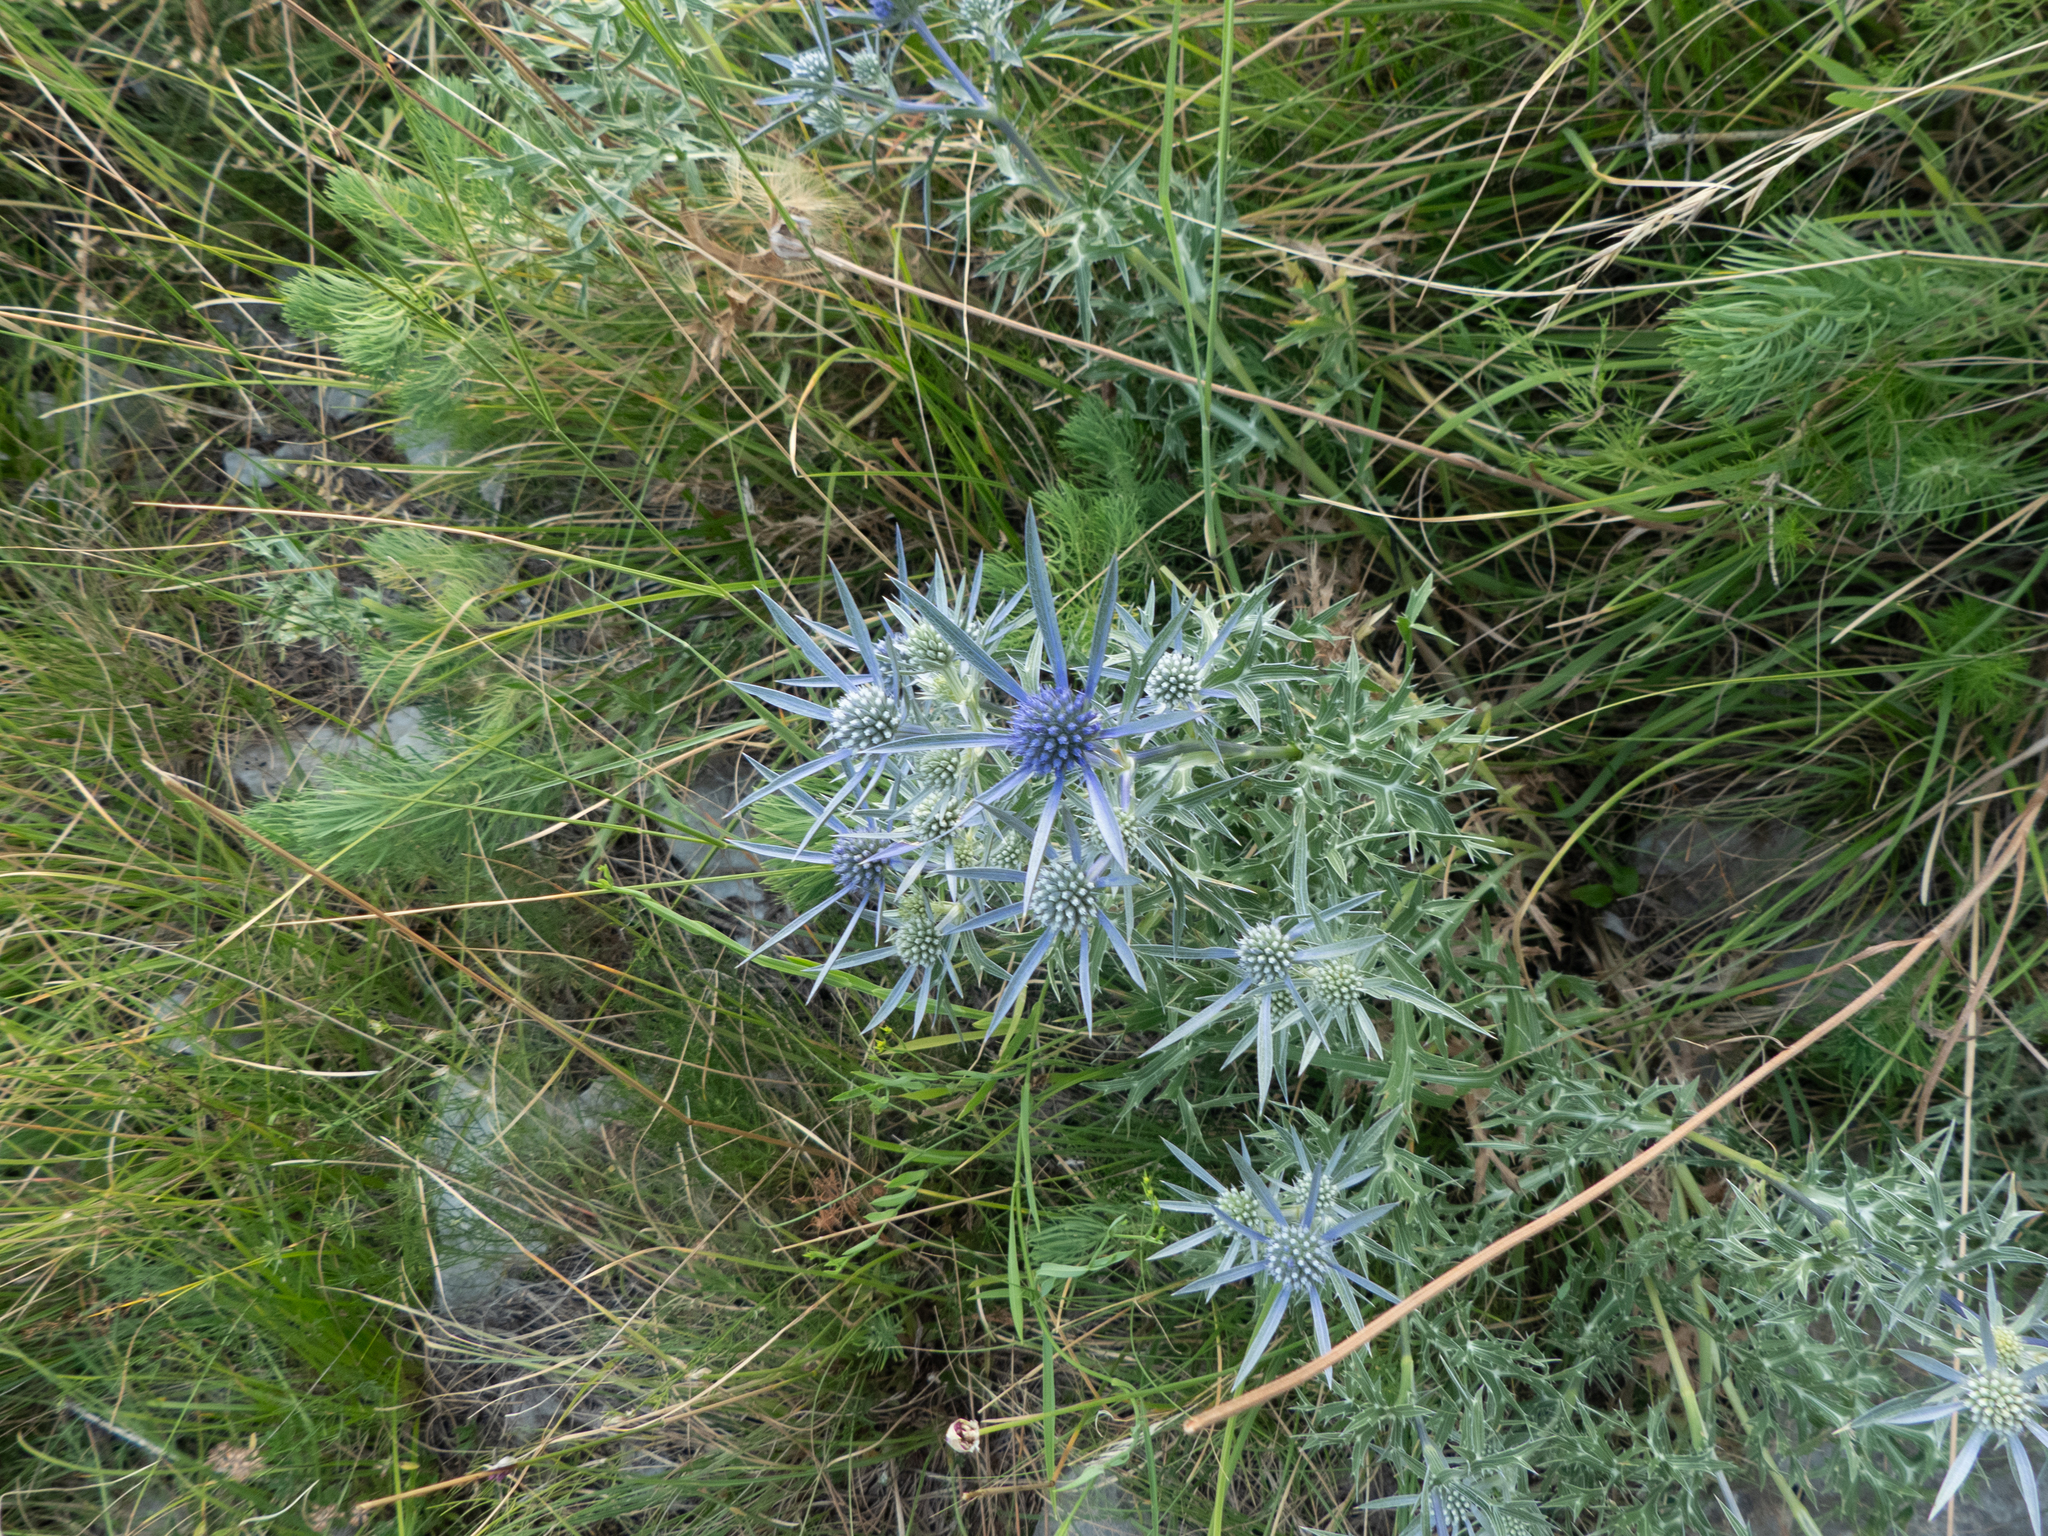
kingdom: Plantae
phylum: Tracheophyta
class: Magnoliopsida
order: Apiales
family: Apiaceae
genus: Eryngium
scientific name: Eryngium amethystinum
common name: Amethyst eryngo
